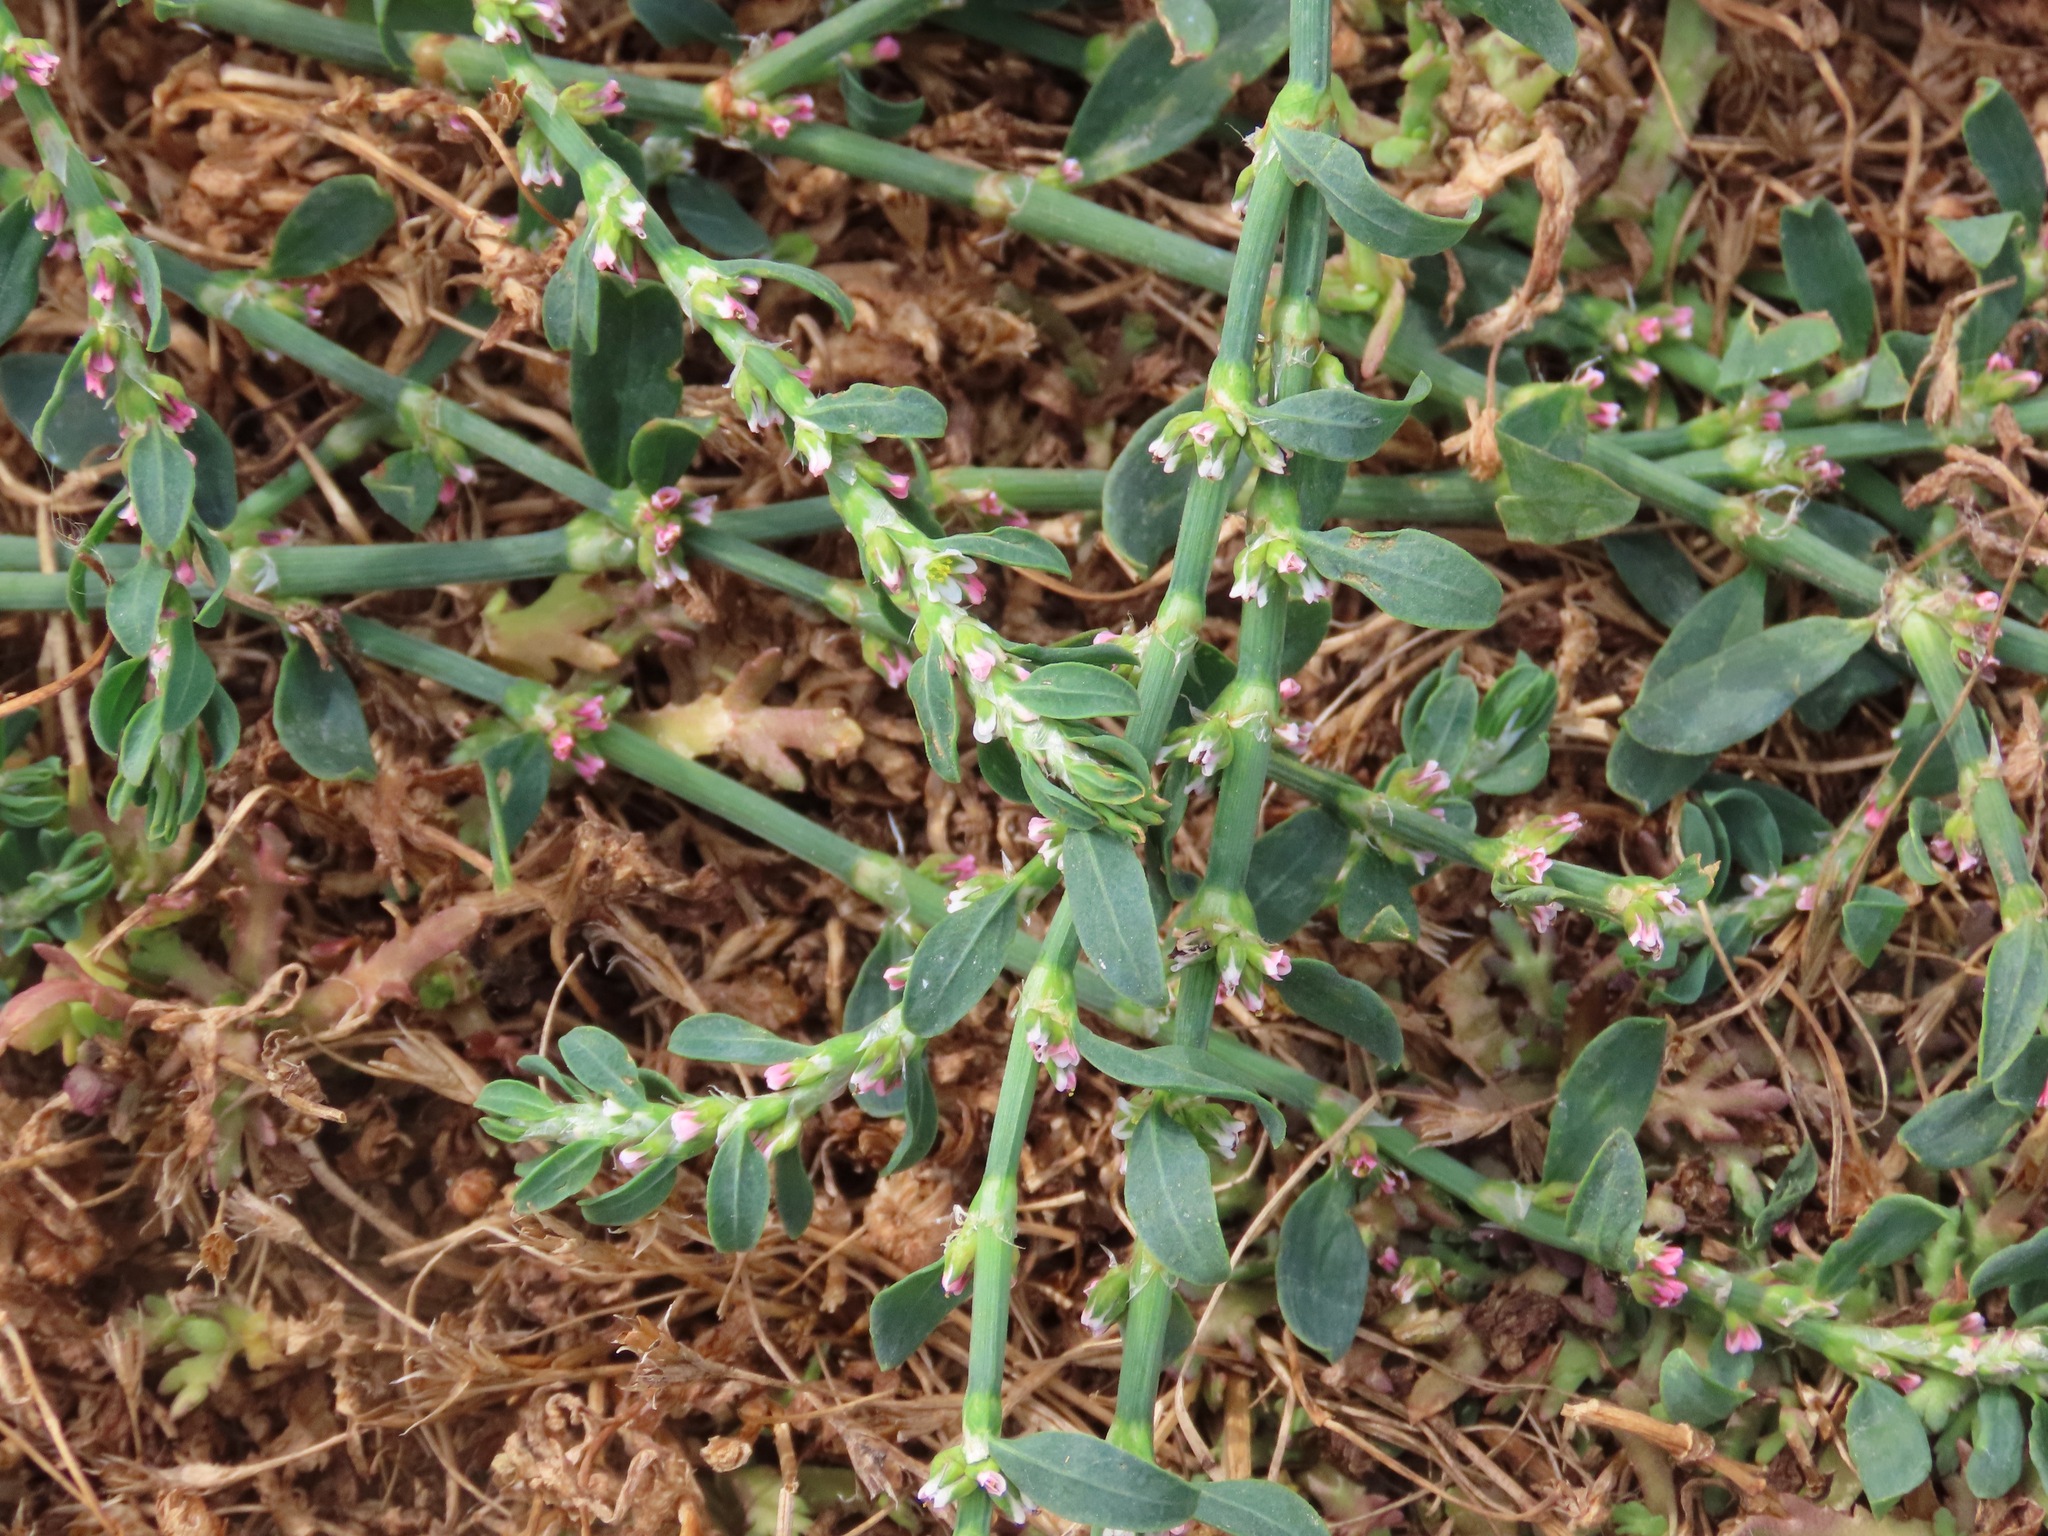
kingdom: Plantae
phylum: Tracheophyta
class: Magnoliopsida
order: Caryophyllales
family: Polygonaceae
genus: Polygonum
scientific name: Polygonum aviculare
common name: Prostrate knotweed
